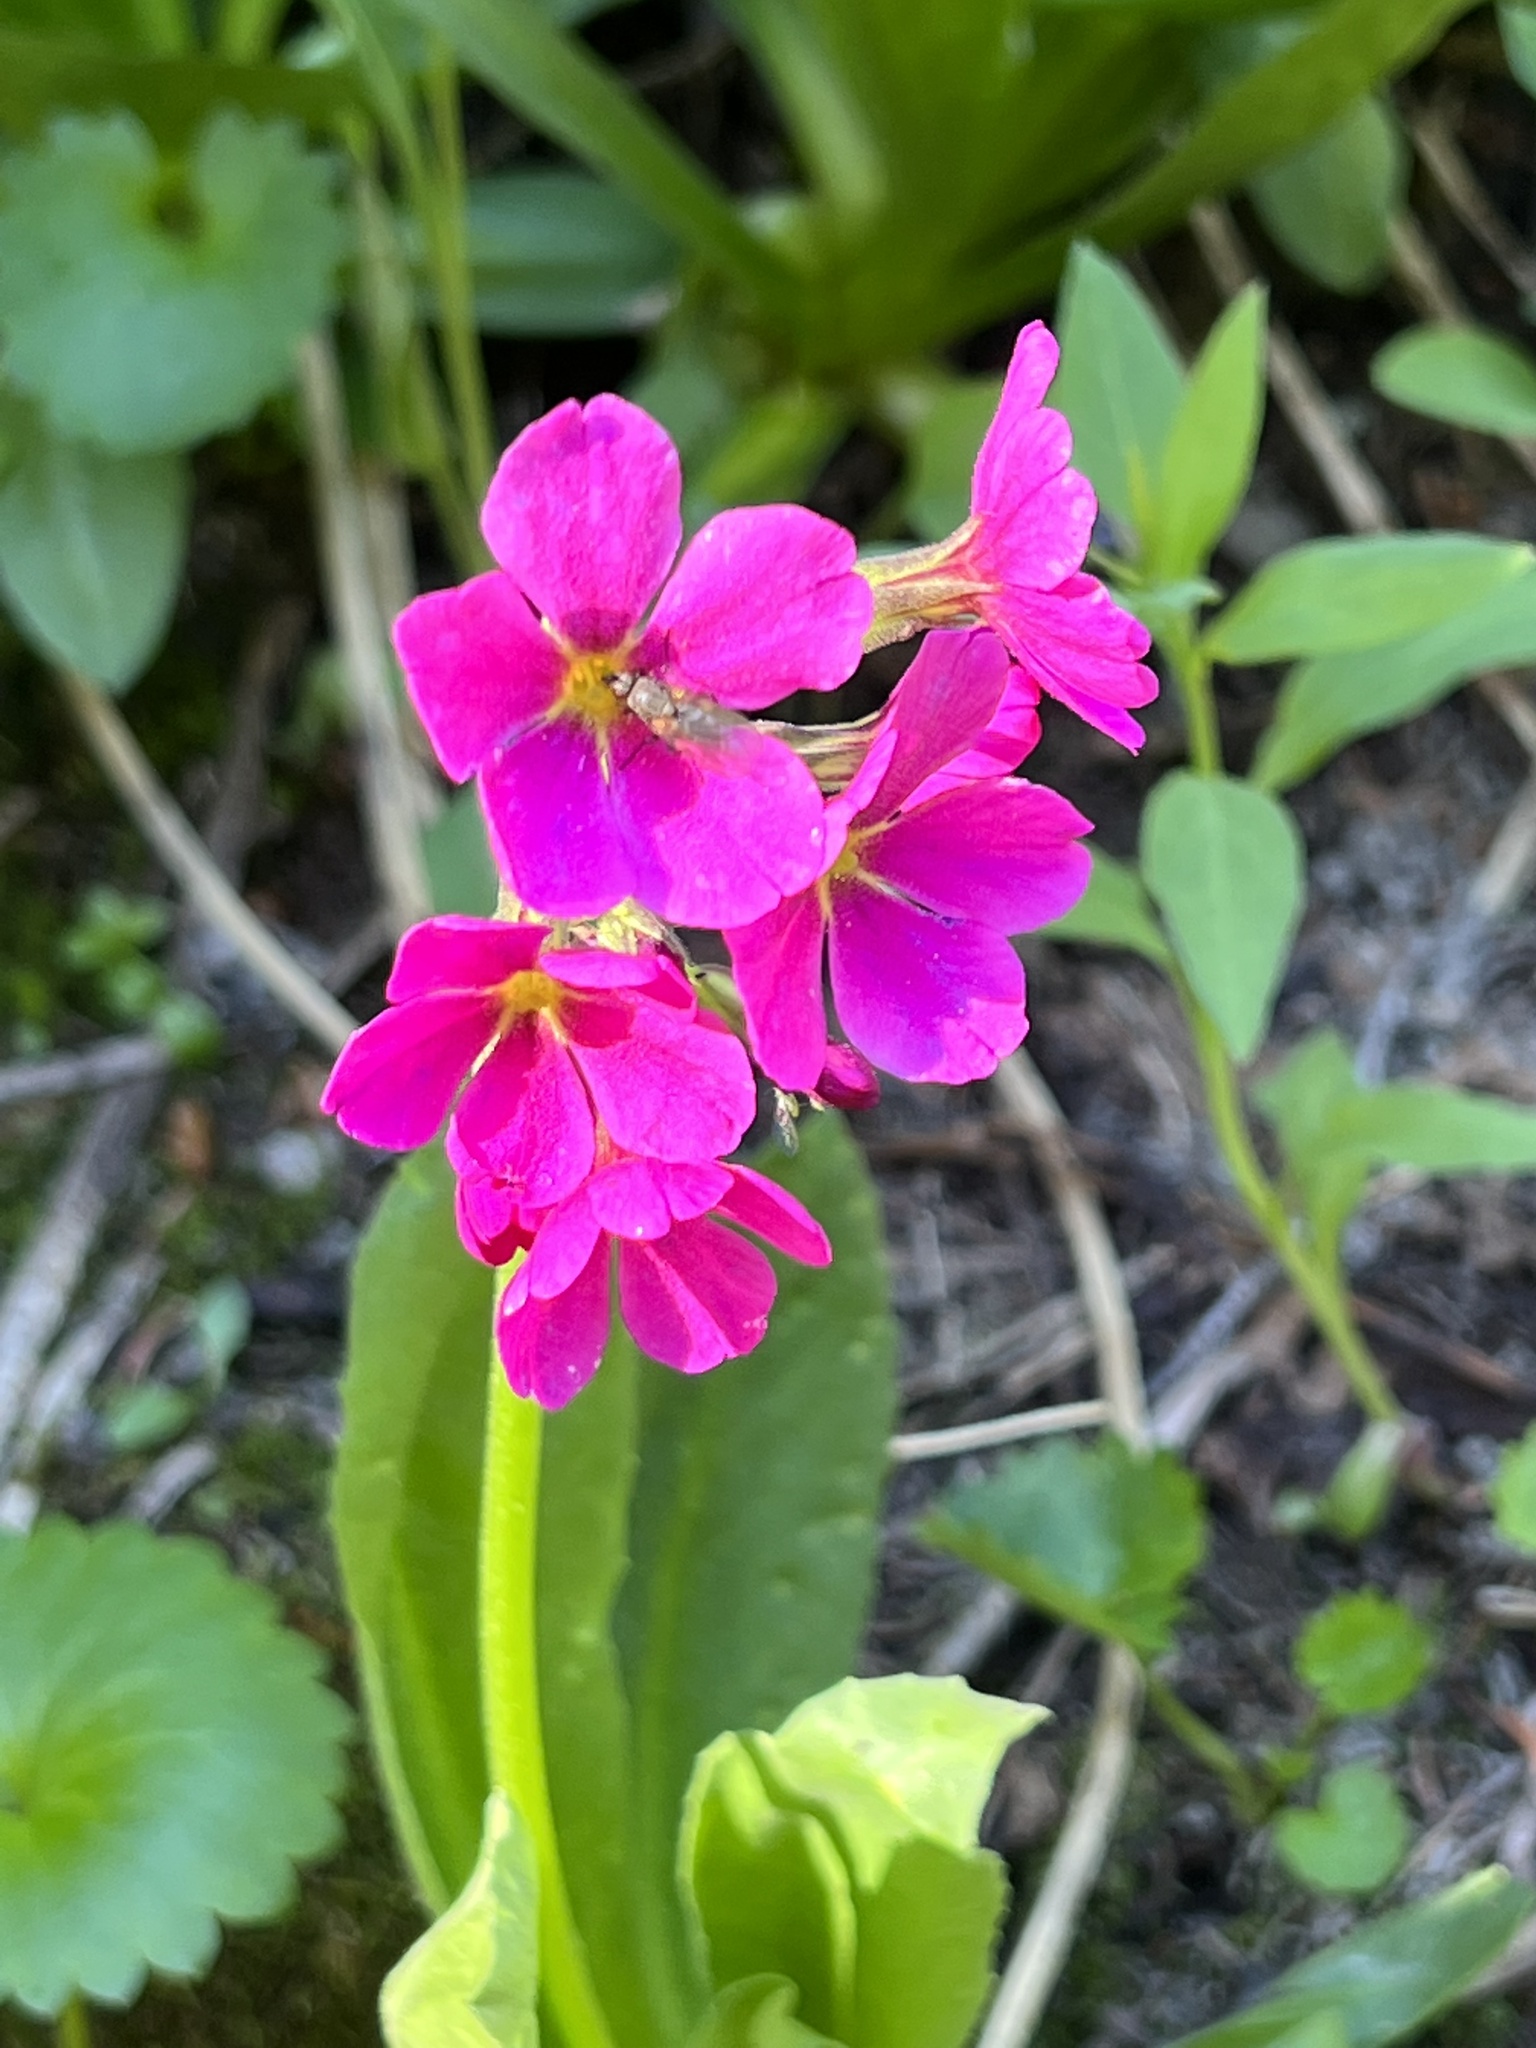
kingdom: Plantae
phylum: Tracheophyta
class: Magnoliopsida
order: Ericales
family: Primulaceae
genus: Primula
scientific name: Primula parryi
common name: Parry's primrose
